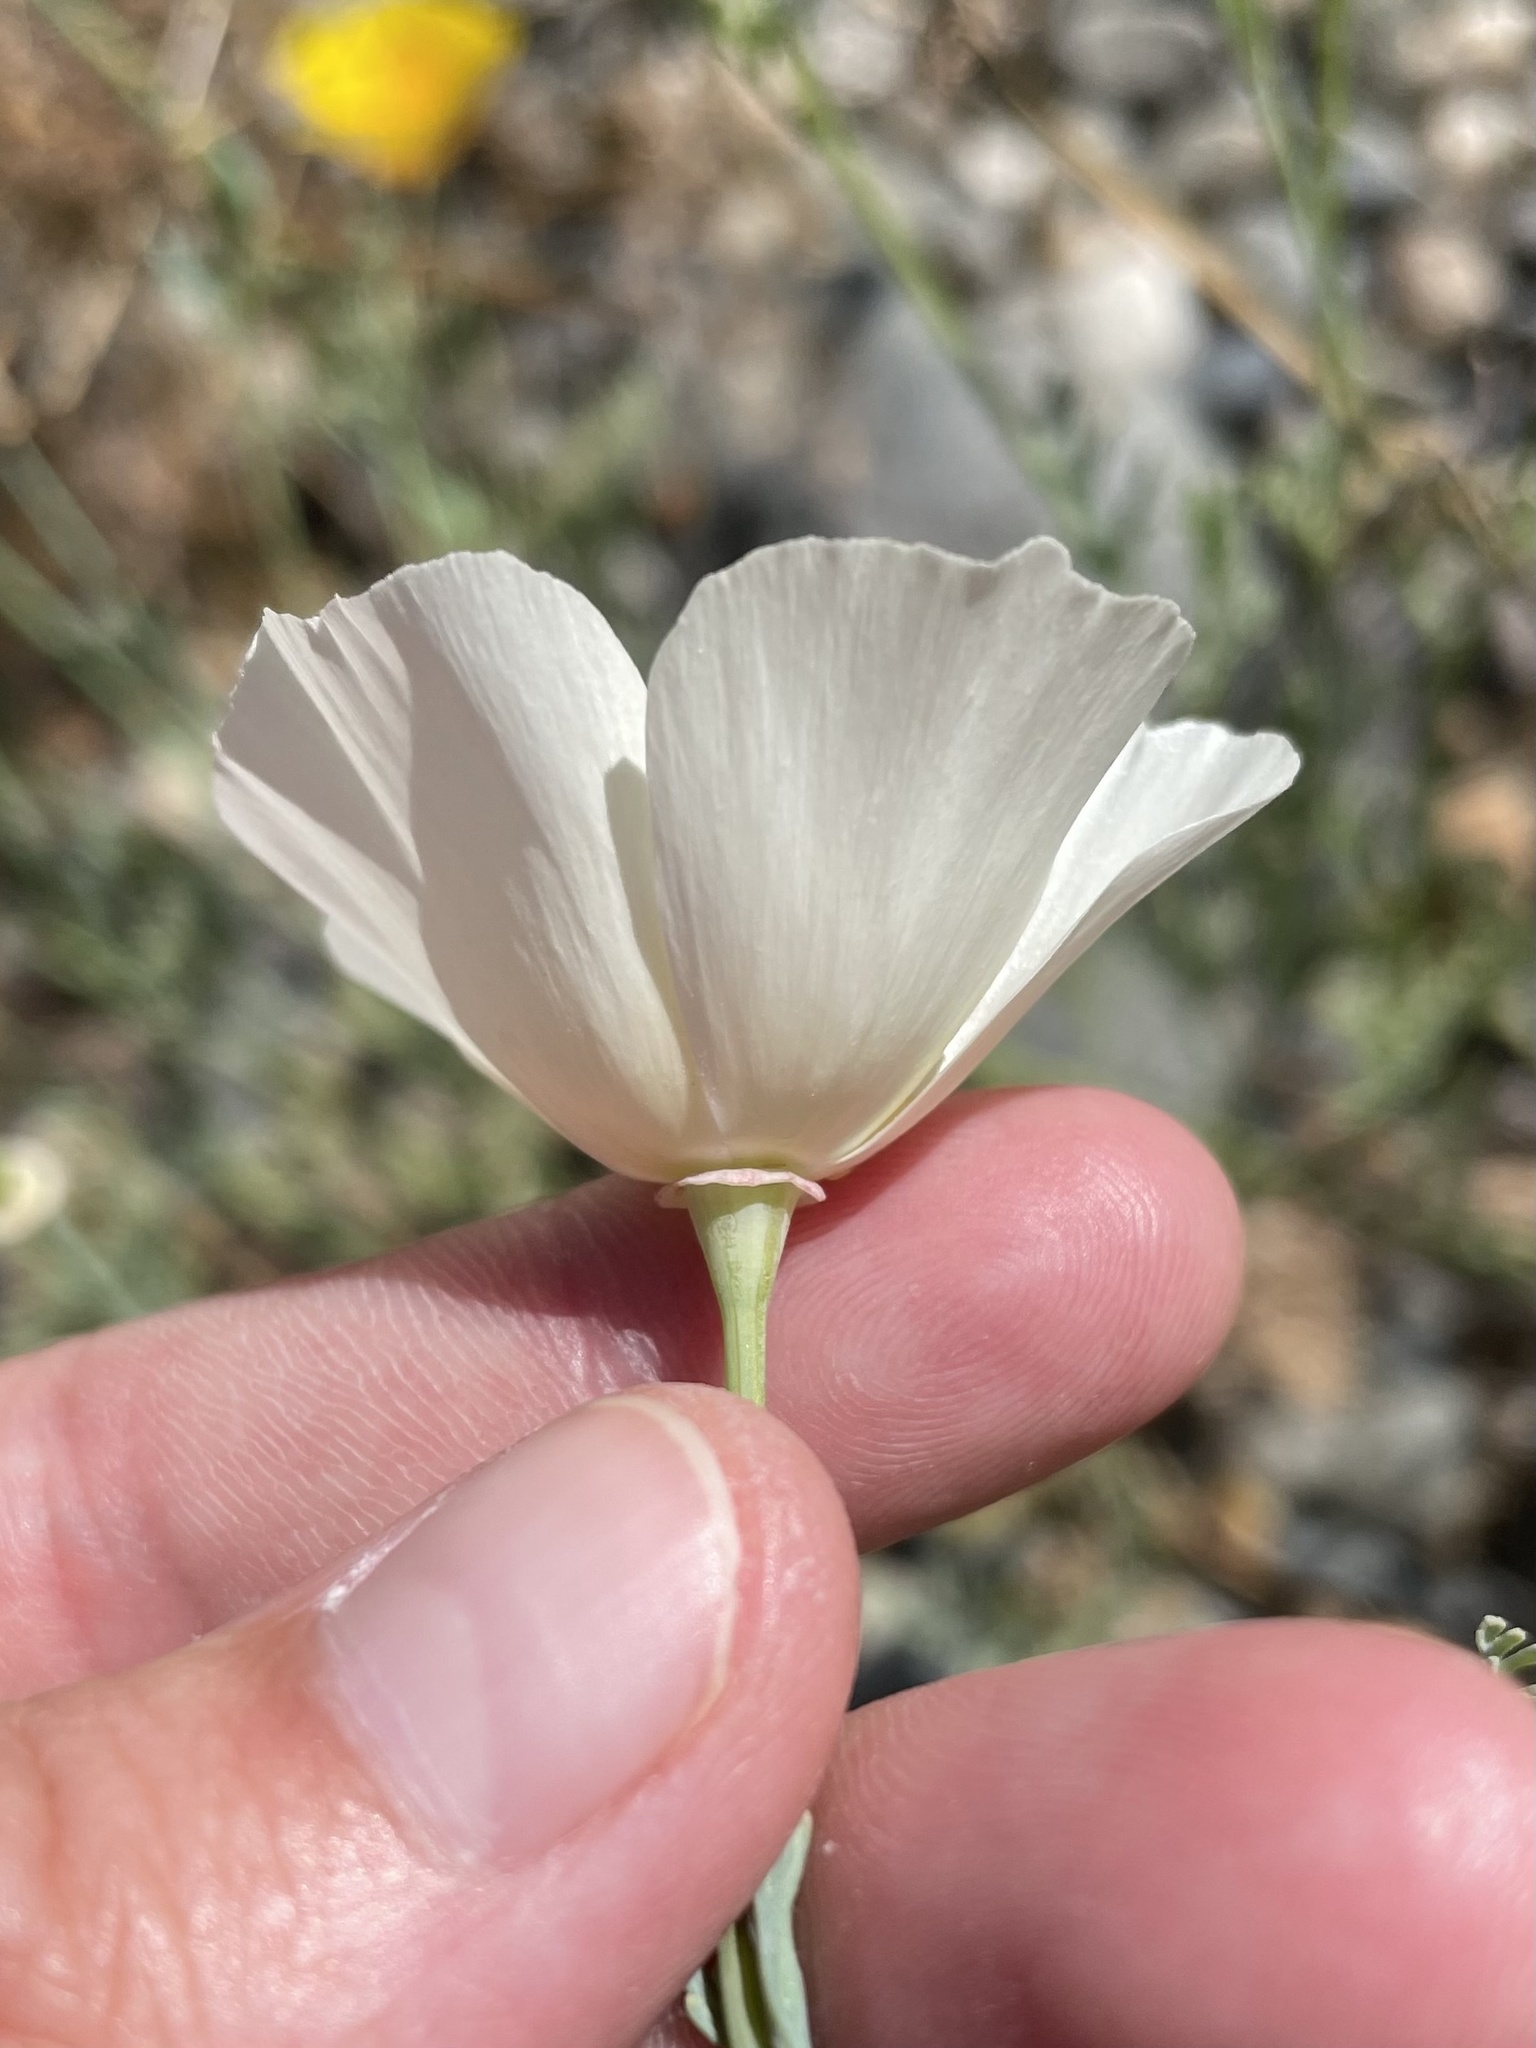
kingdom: Plantae
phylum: Tracheophyta
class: Magnoliopsida
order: Ranunculales
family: Papaveraceae
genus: Eschscholzia
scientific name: Eschscholzia californica
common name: California poppy
